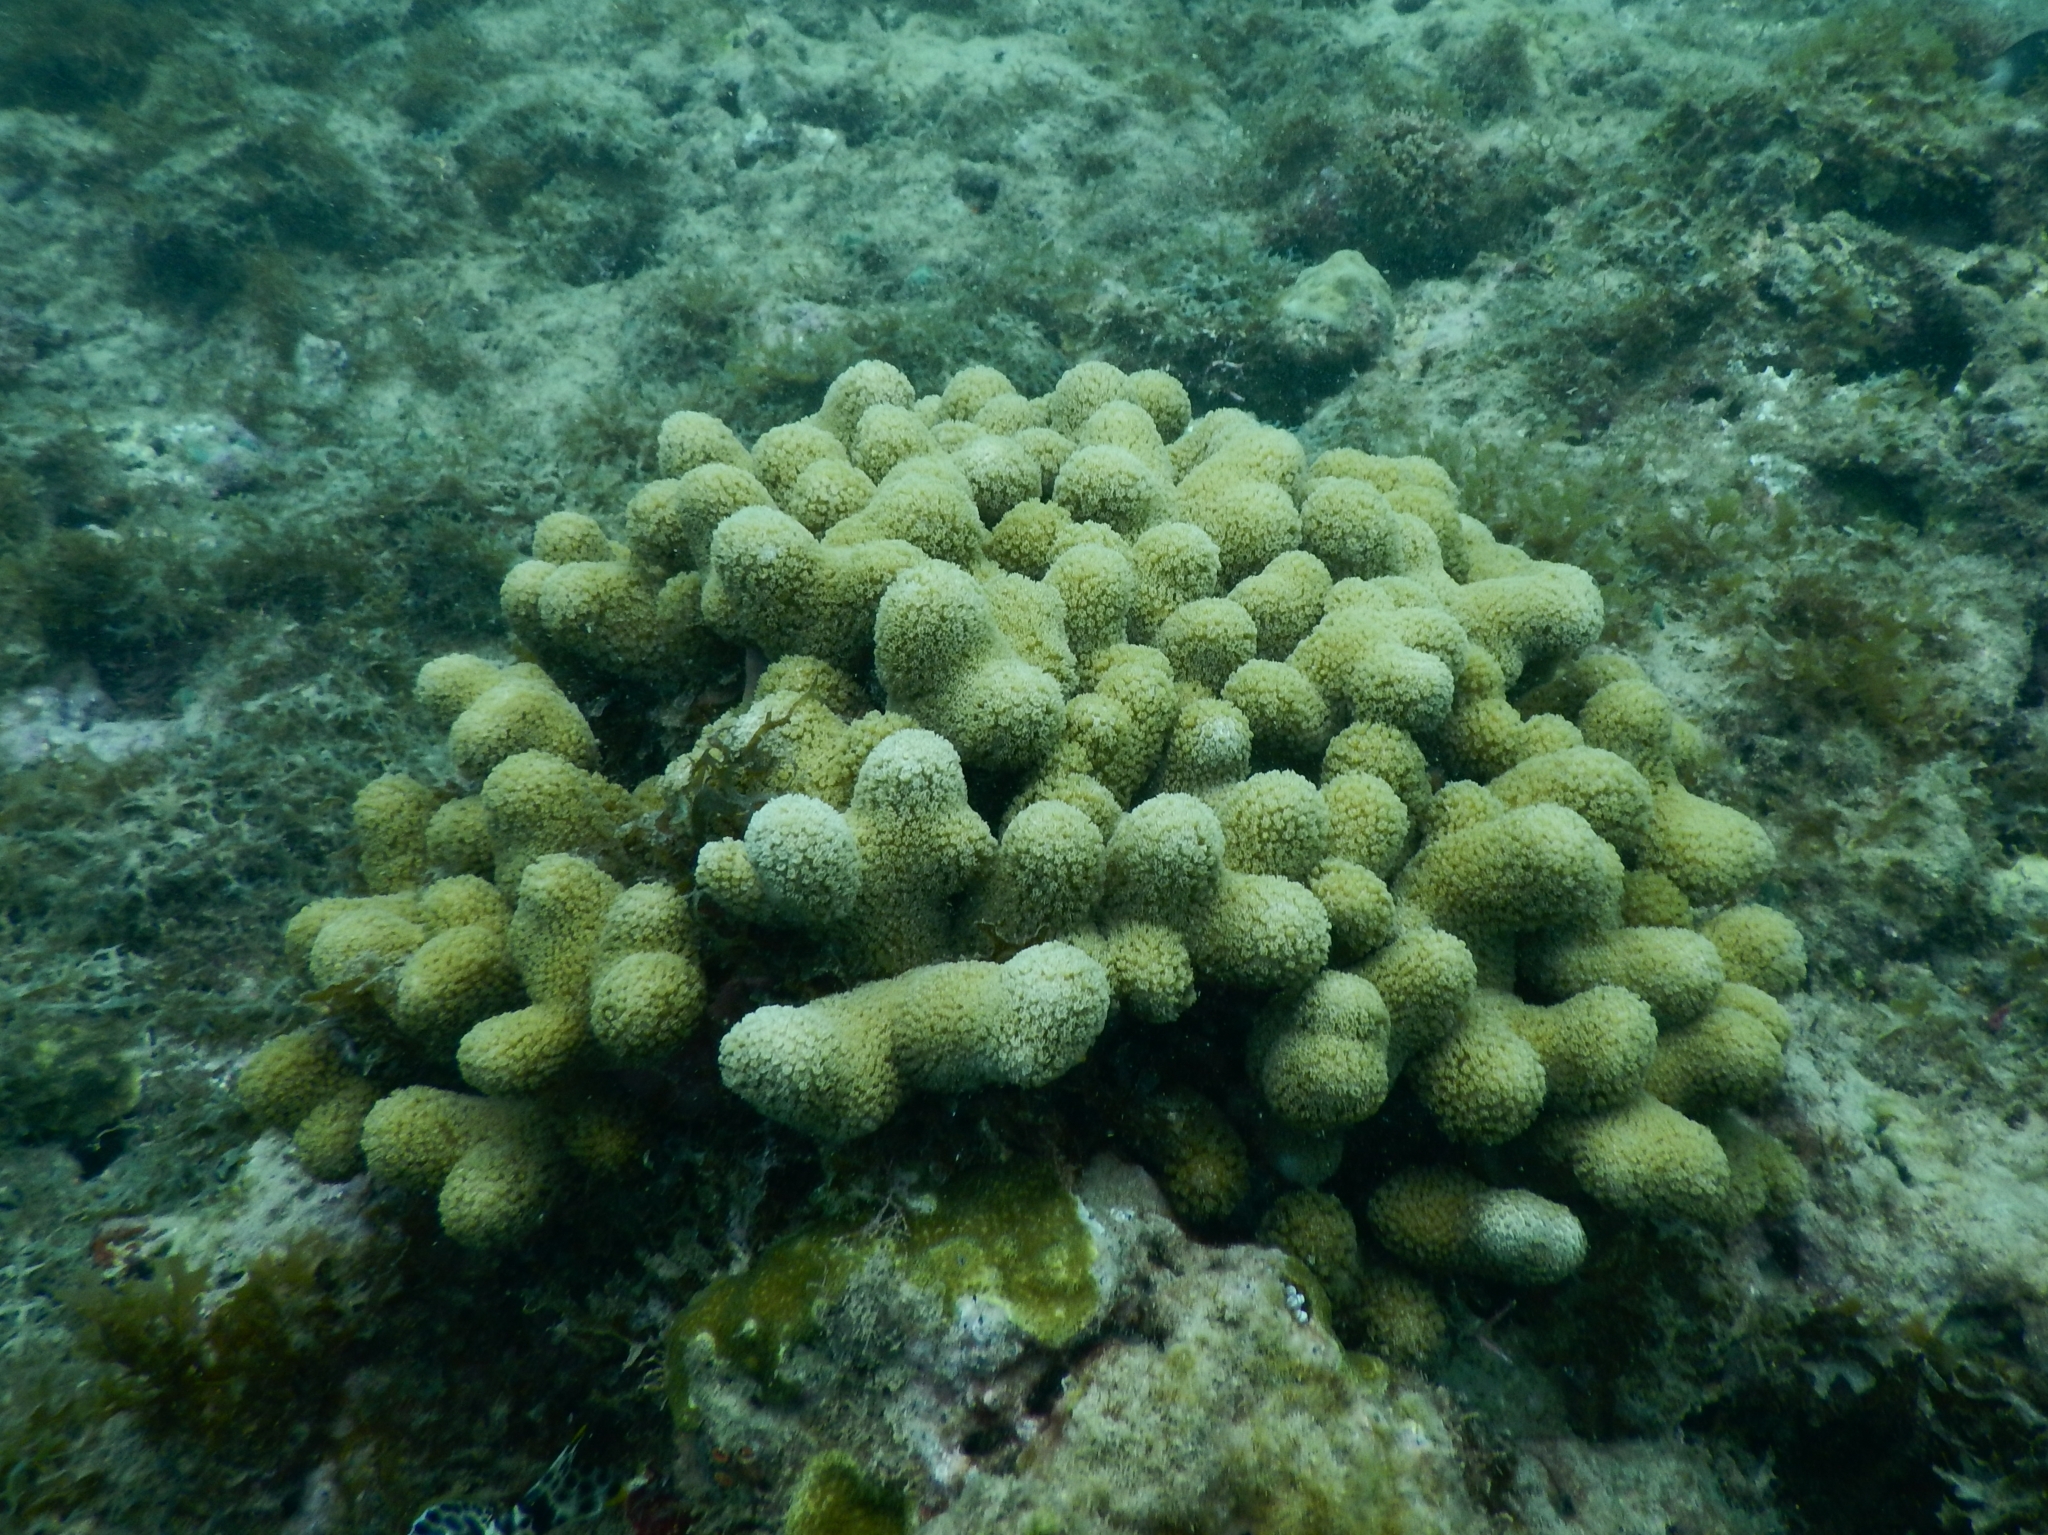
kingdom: Animalia
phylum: Cnidaria
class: Anthozoa
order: Scleractinia
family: Poritidae
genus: Porites
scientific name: Porites porites
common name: Finger coral
